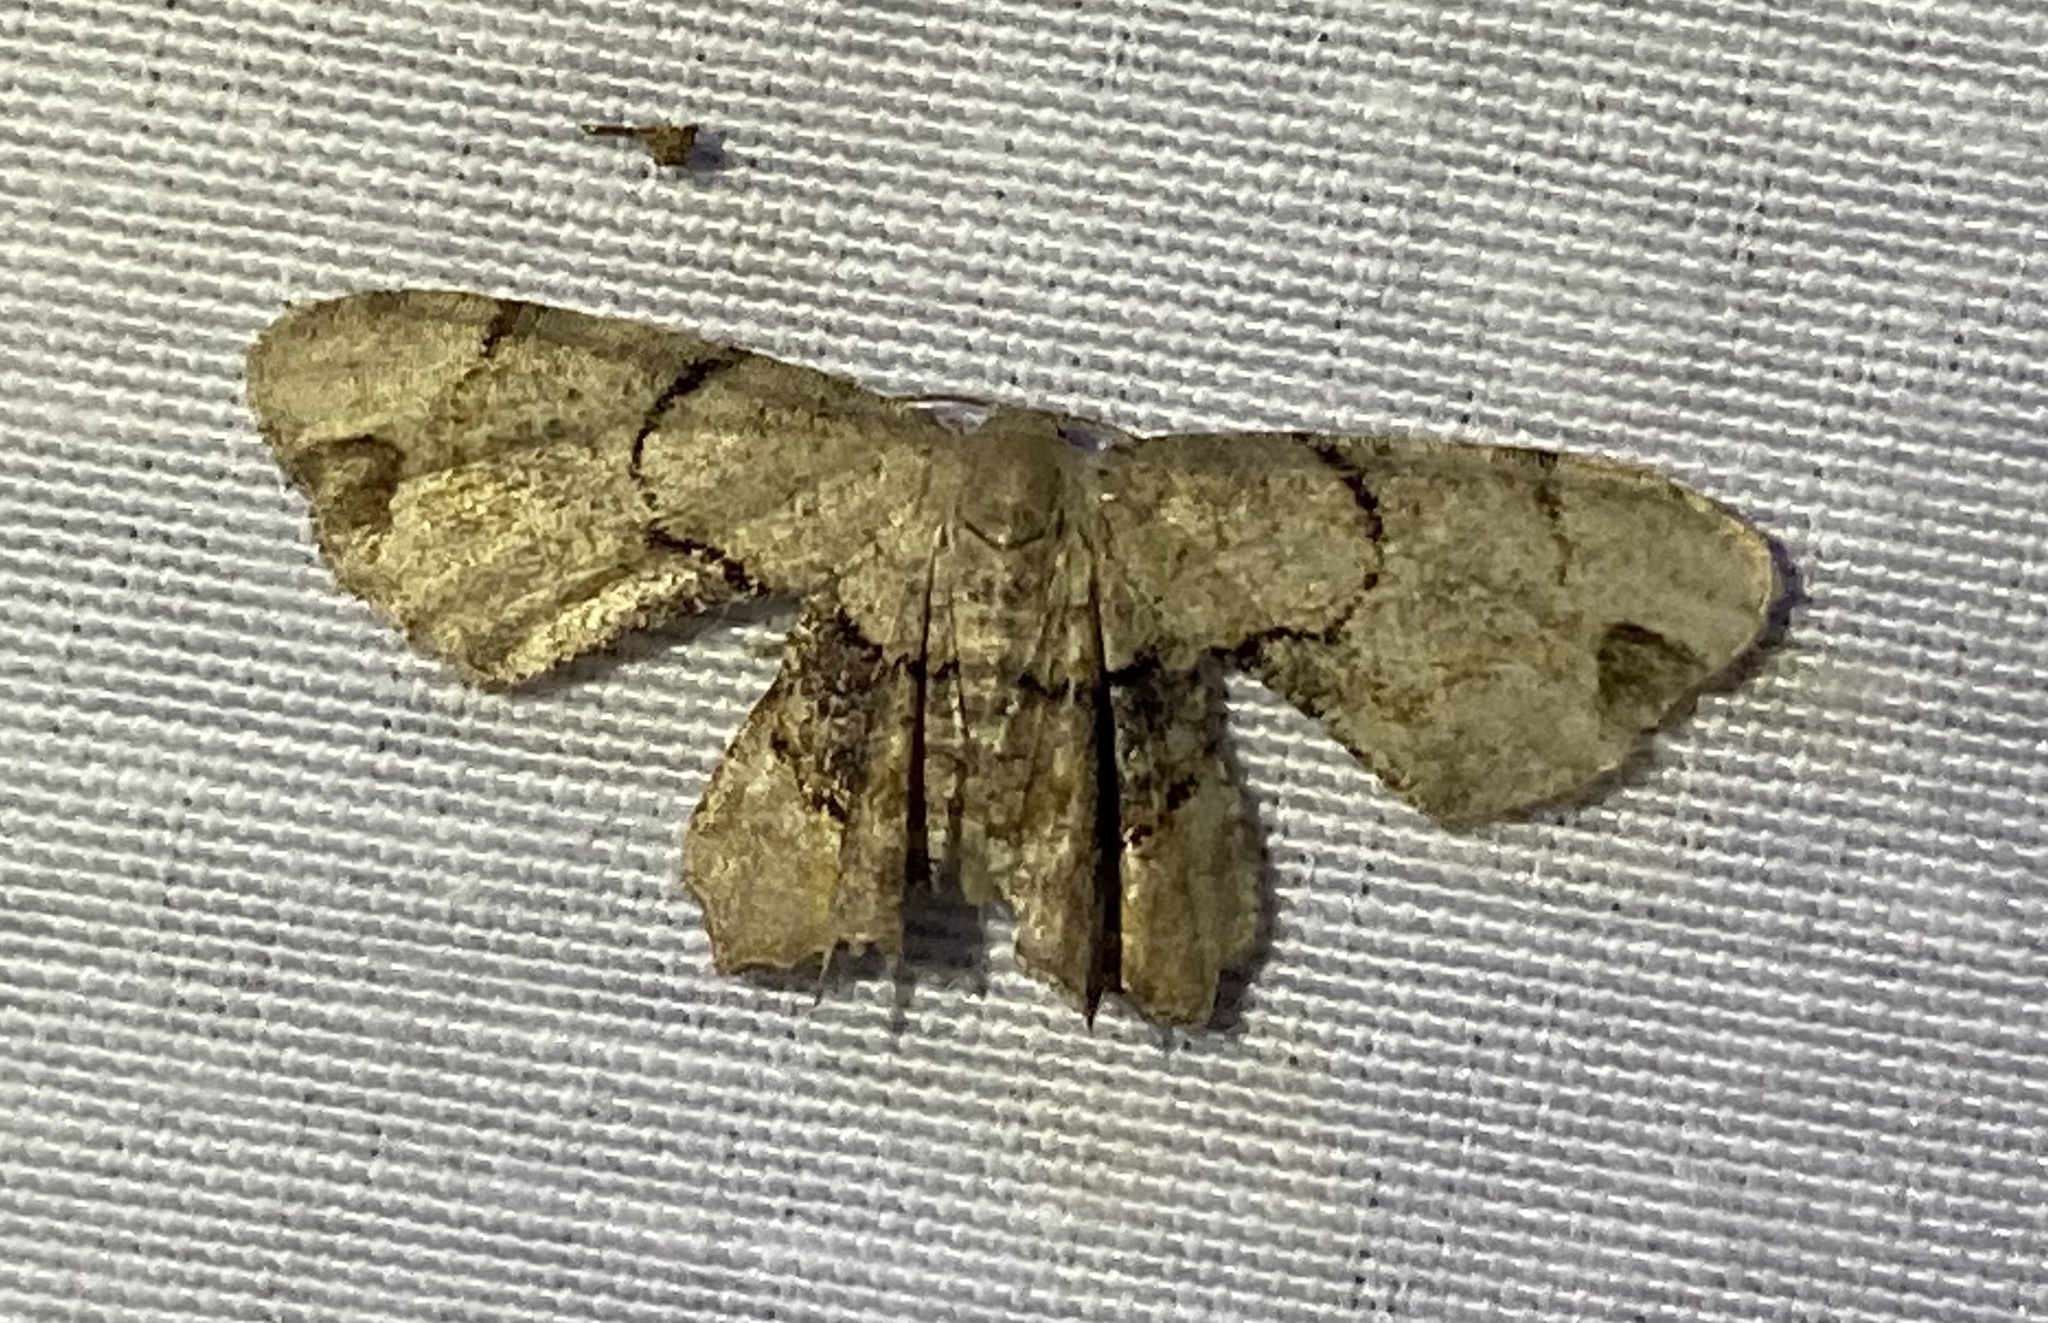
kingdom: Animalia
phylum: Arthropoda
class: Insecta
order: Lepidoptera
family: Uraniidae
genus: Epiplema
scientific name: Epiplema Callizzia amorata
